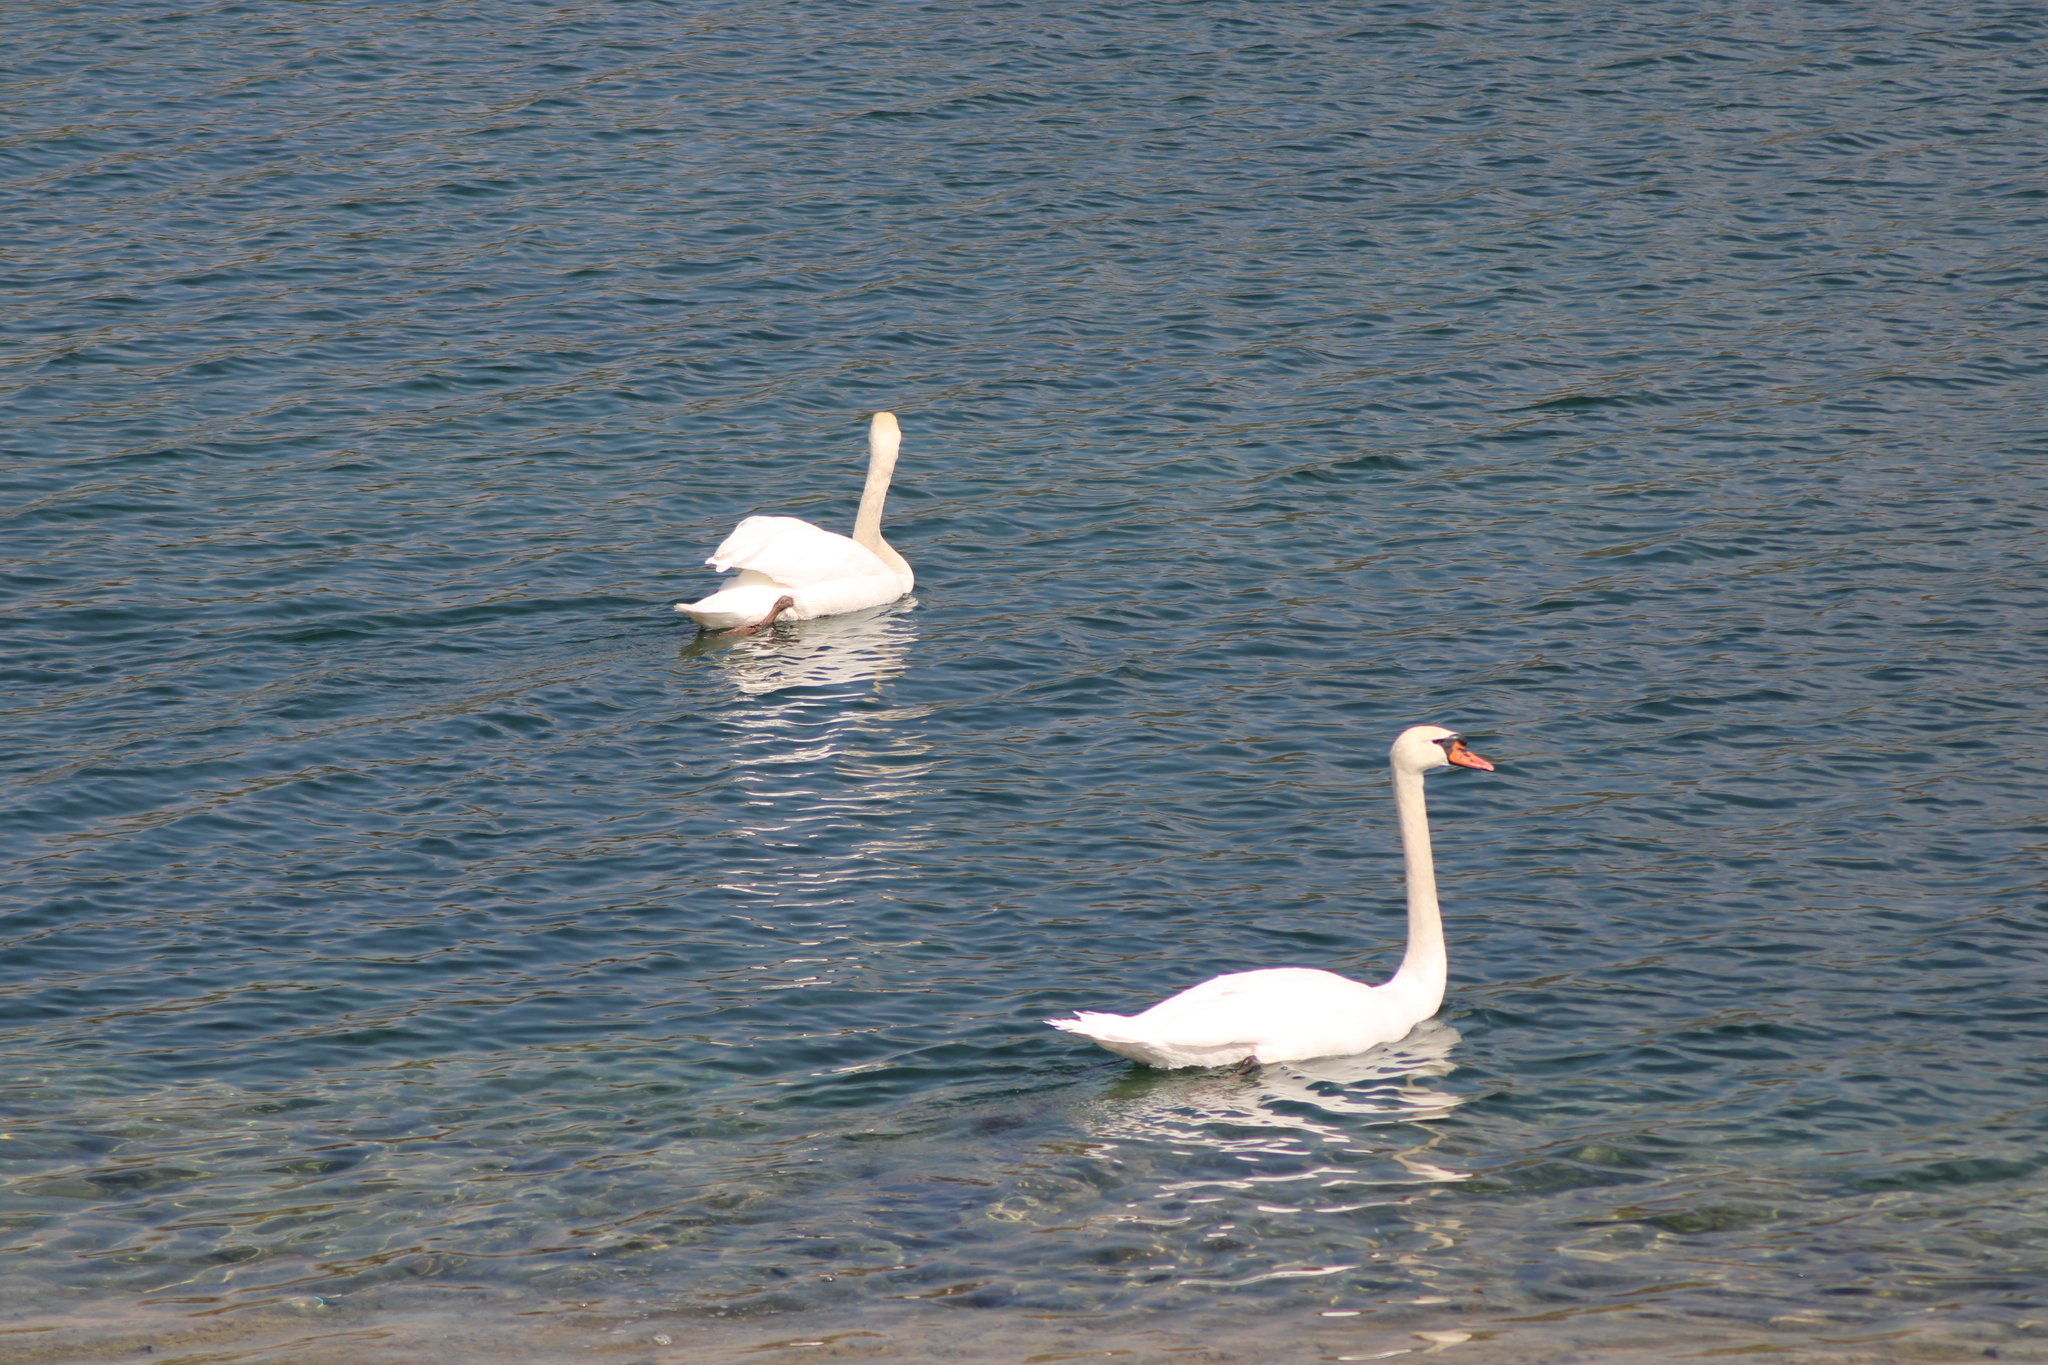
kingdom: Animalia
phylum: Chordata
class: Aves
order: Anseriformes
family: Anatidae
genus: Cygnus
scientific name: Cygnus olor
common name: Mute swan
